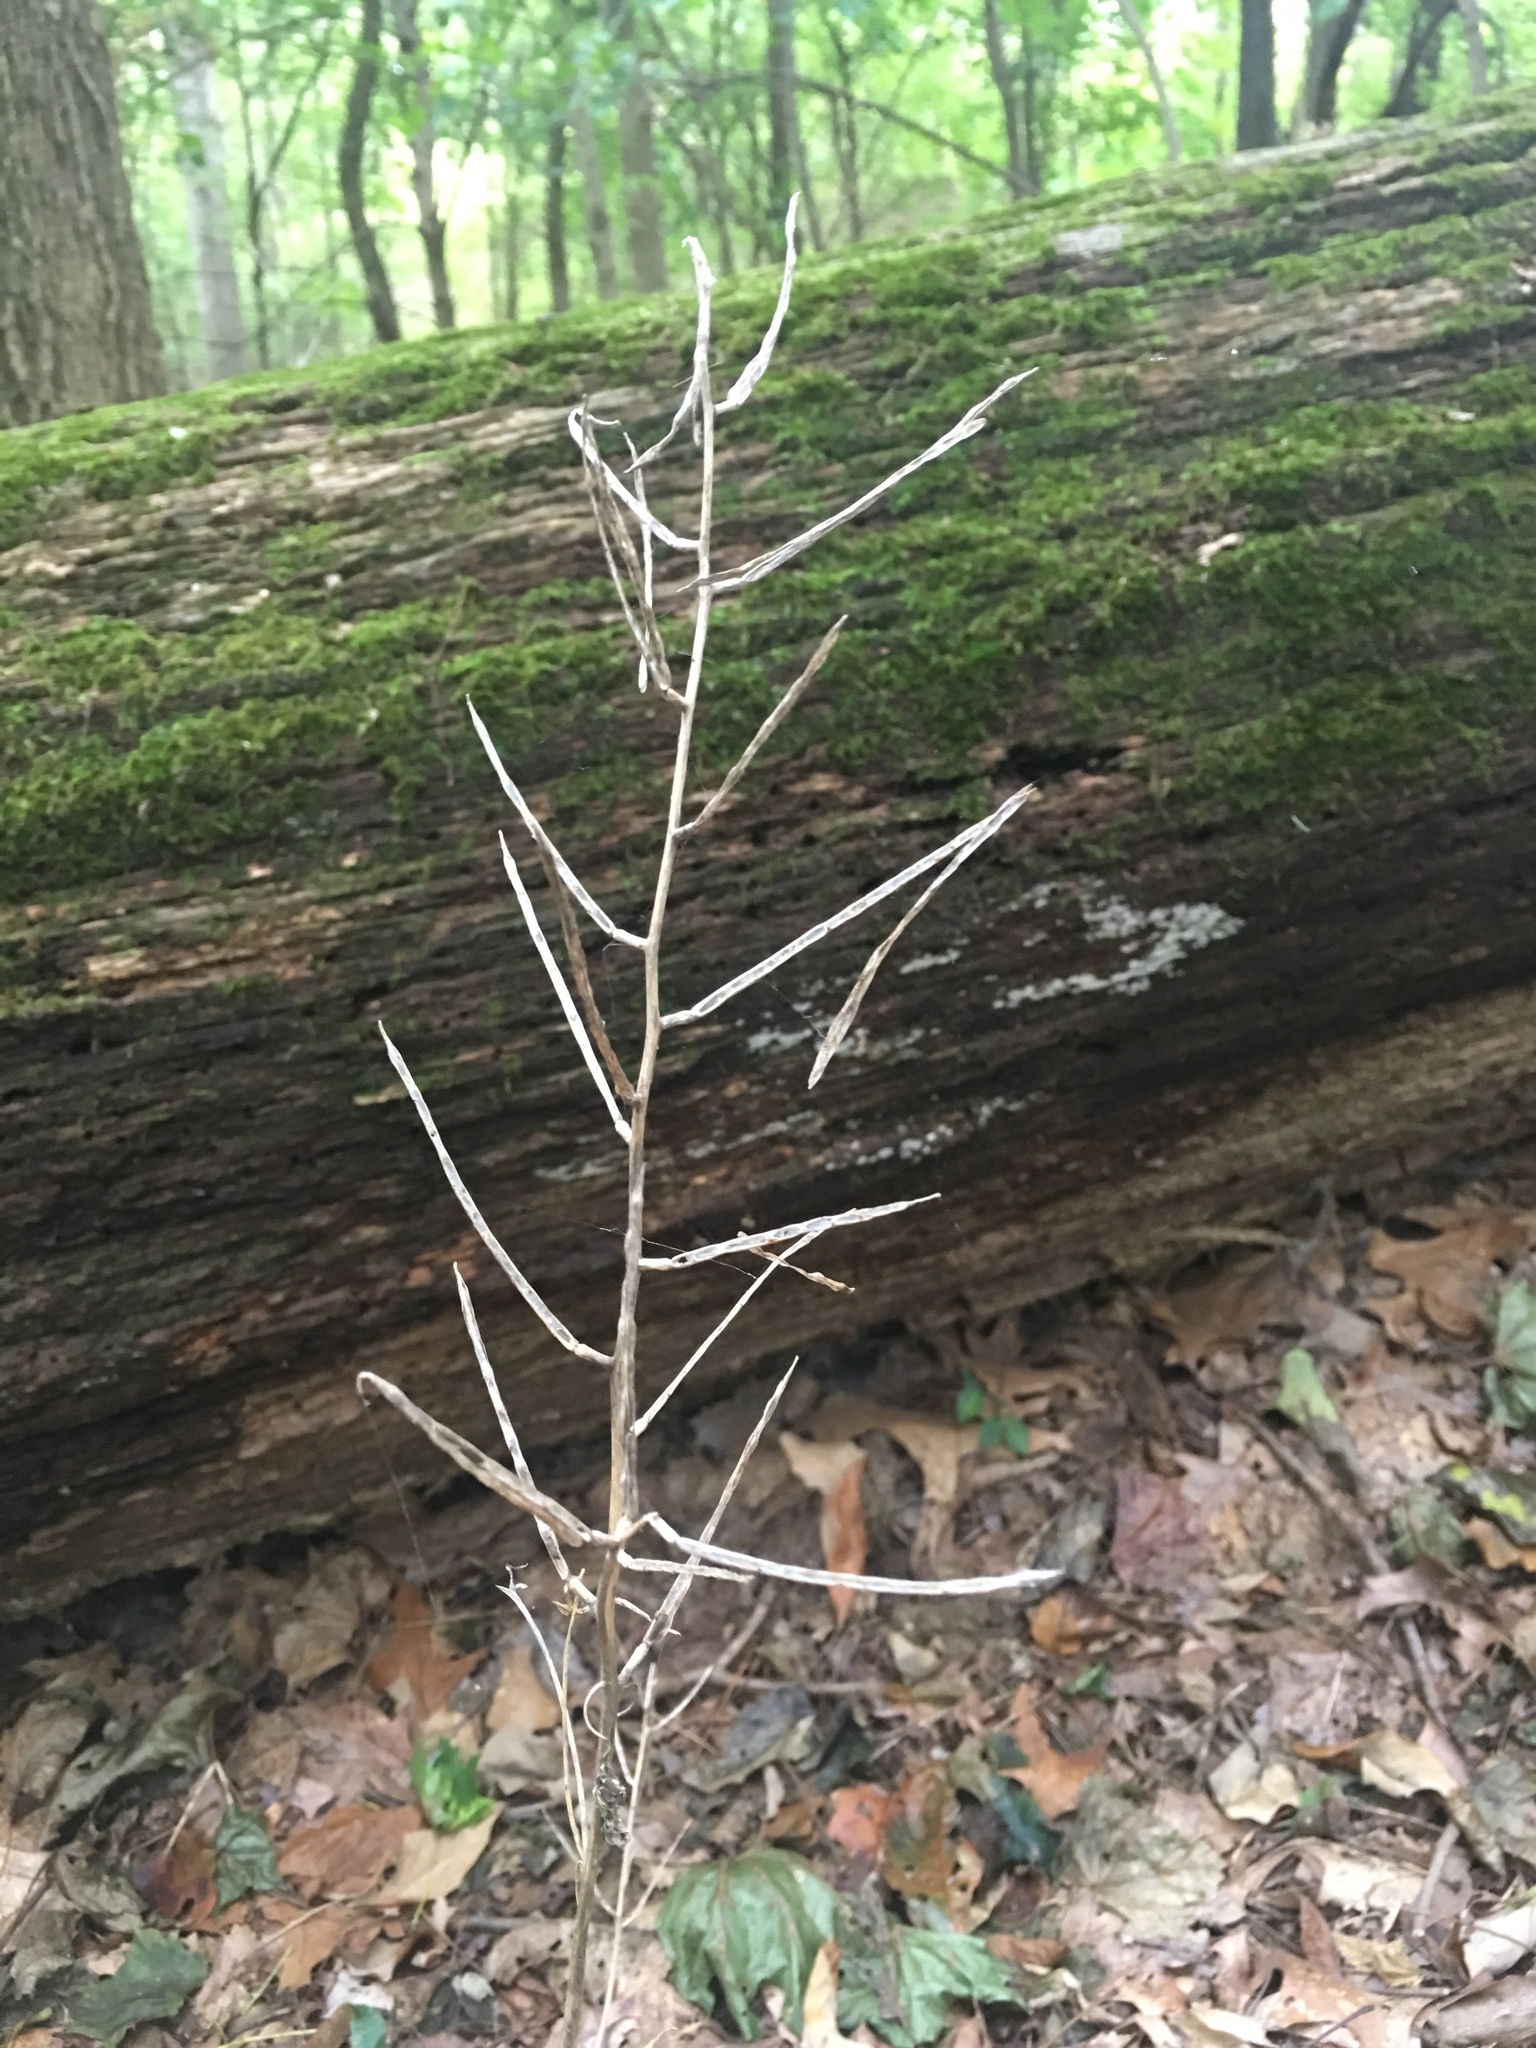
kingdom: Plantae
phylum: Tracheophyta
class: Magnoliopsida
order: Brassicales
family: Brassicaceae
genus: Alliaria
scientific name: Alliaria petiolata
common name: Garlic mustard
